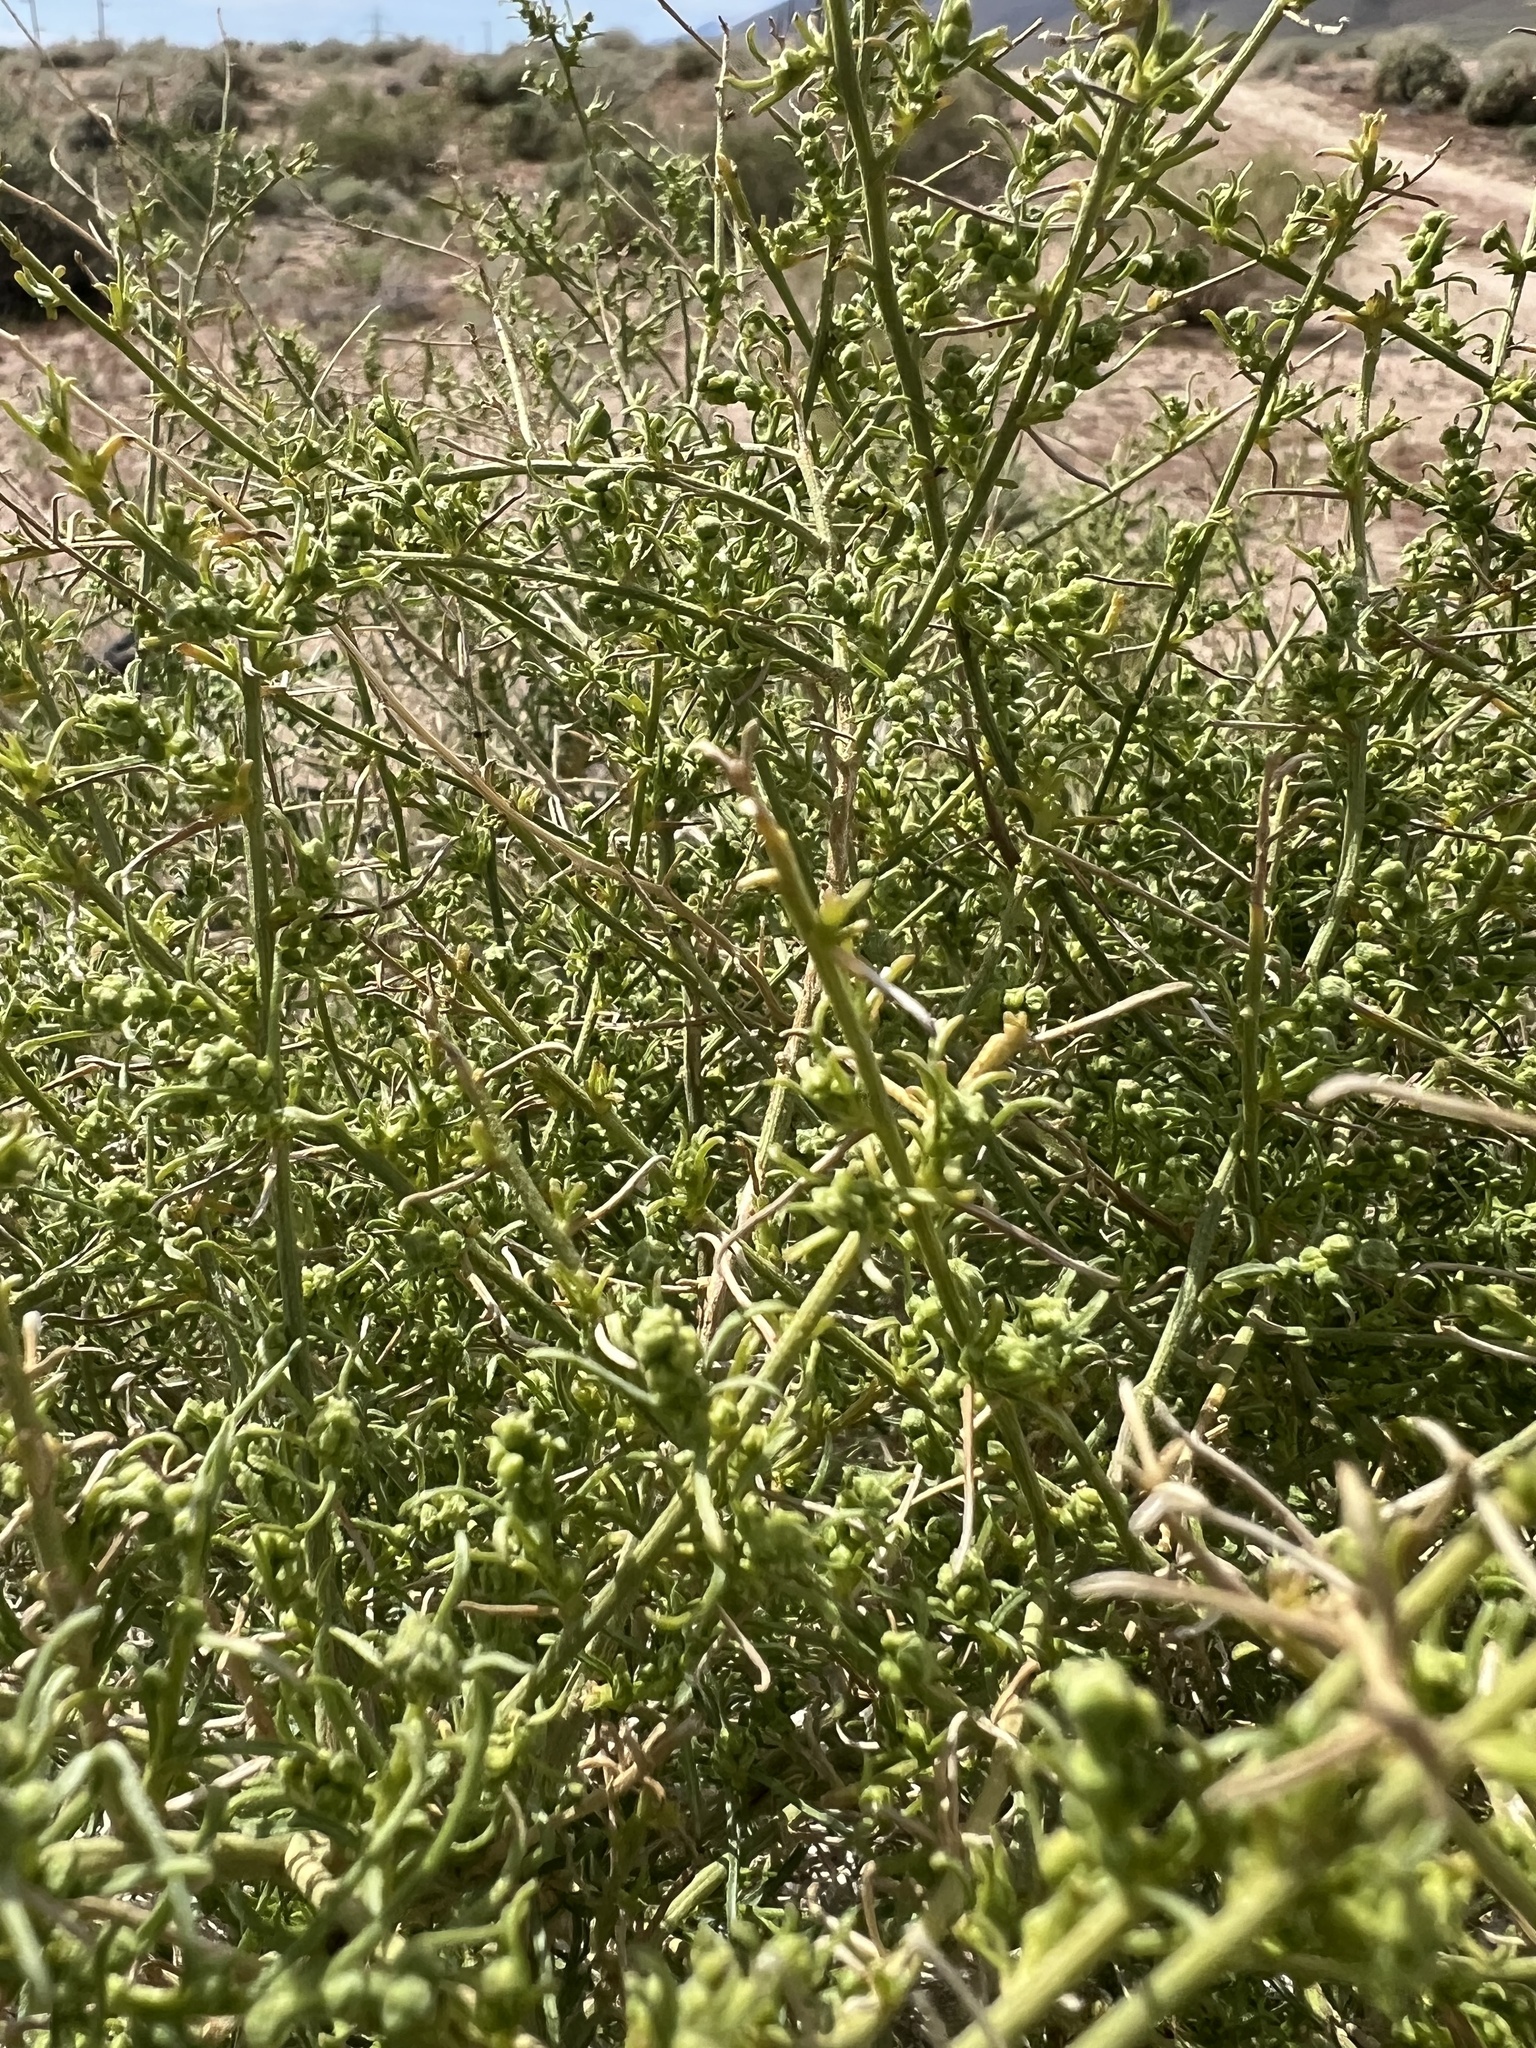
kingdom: Plantae
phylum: Tracheophyta
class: Magnoliopsida
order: Asterales
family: Asteraceae
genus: Ambrosia
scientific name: Ambrosia salsola
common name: Burrobrush
